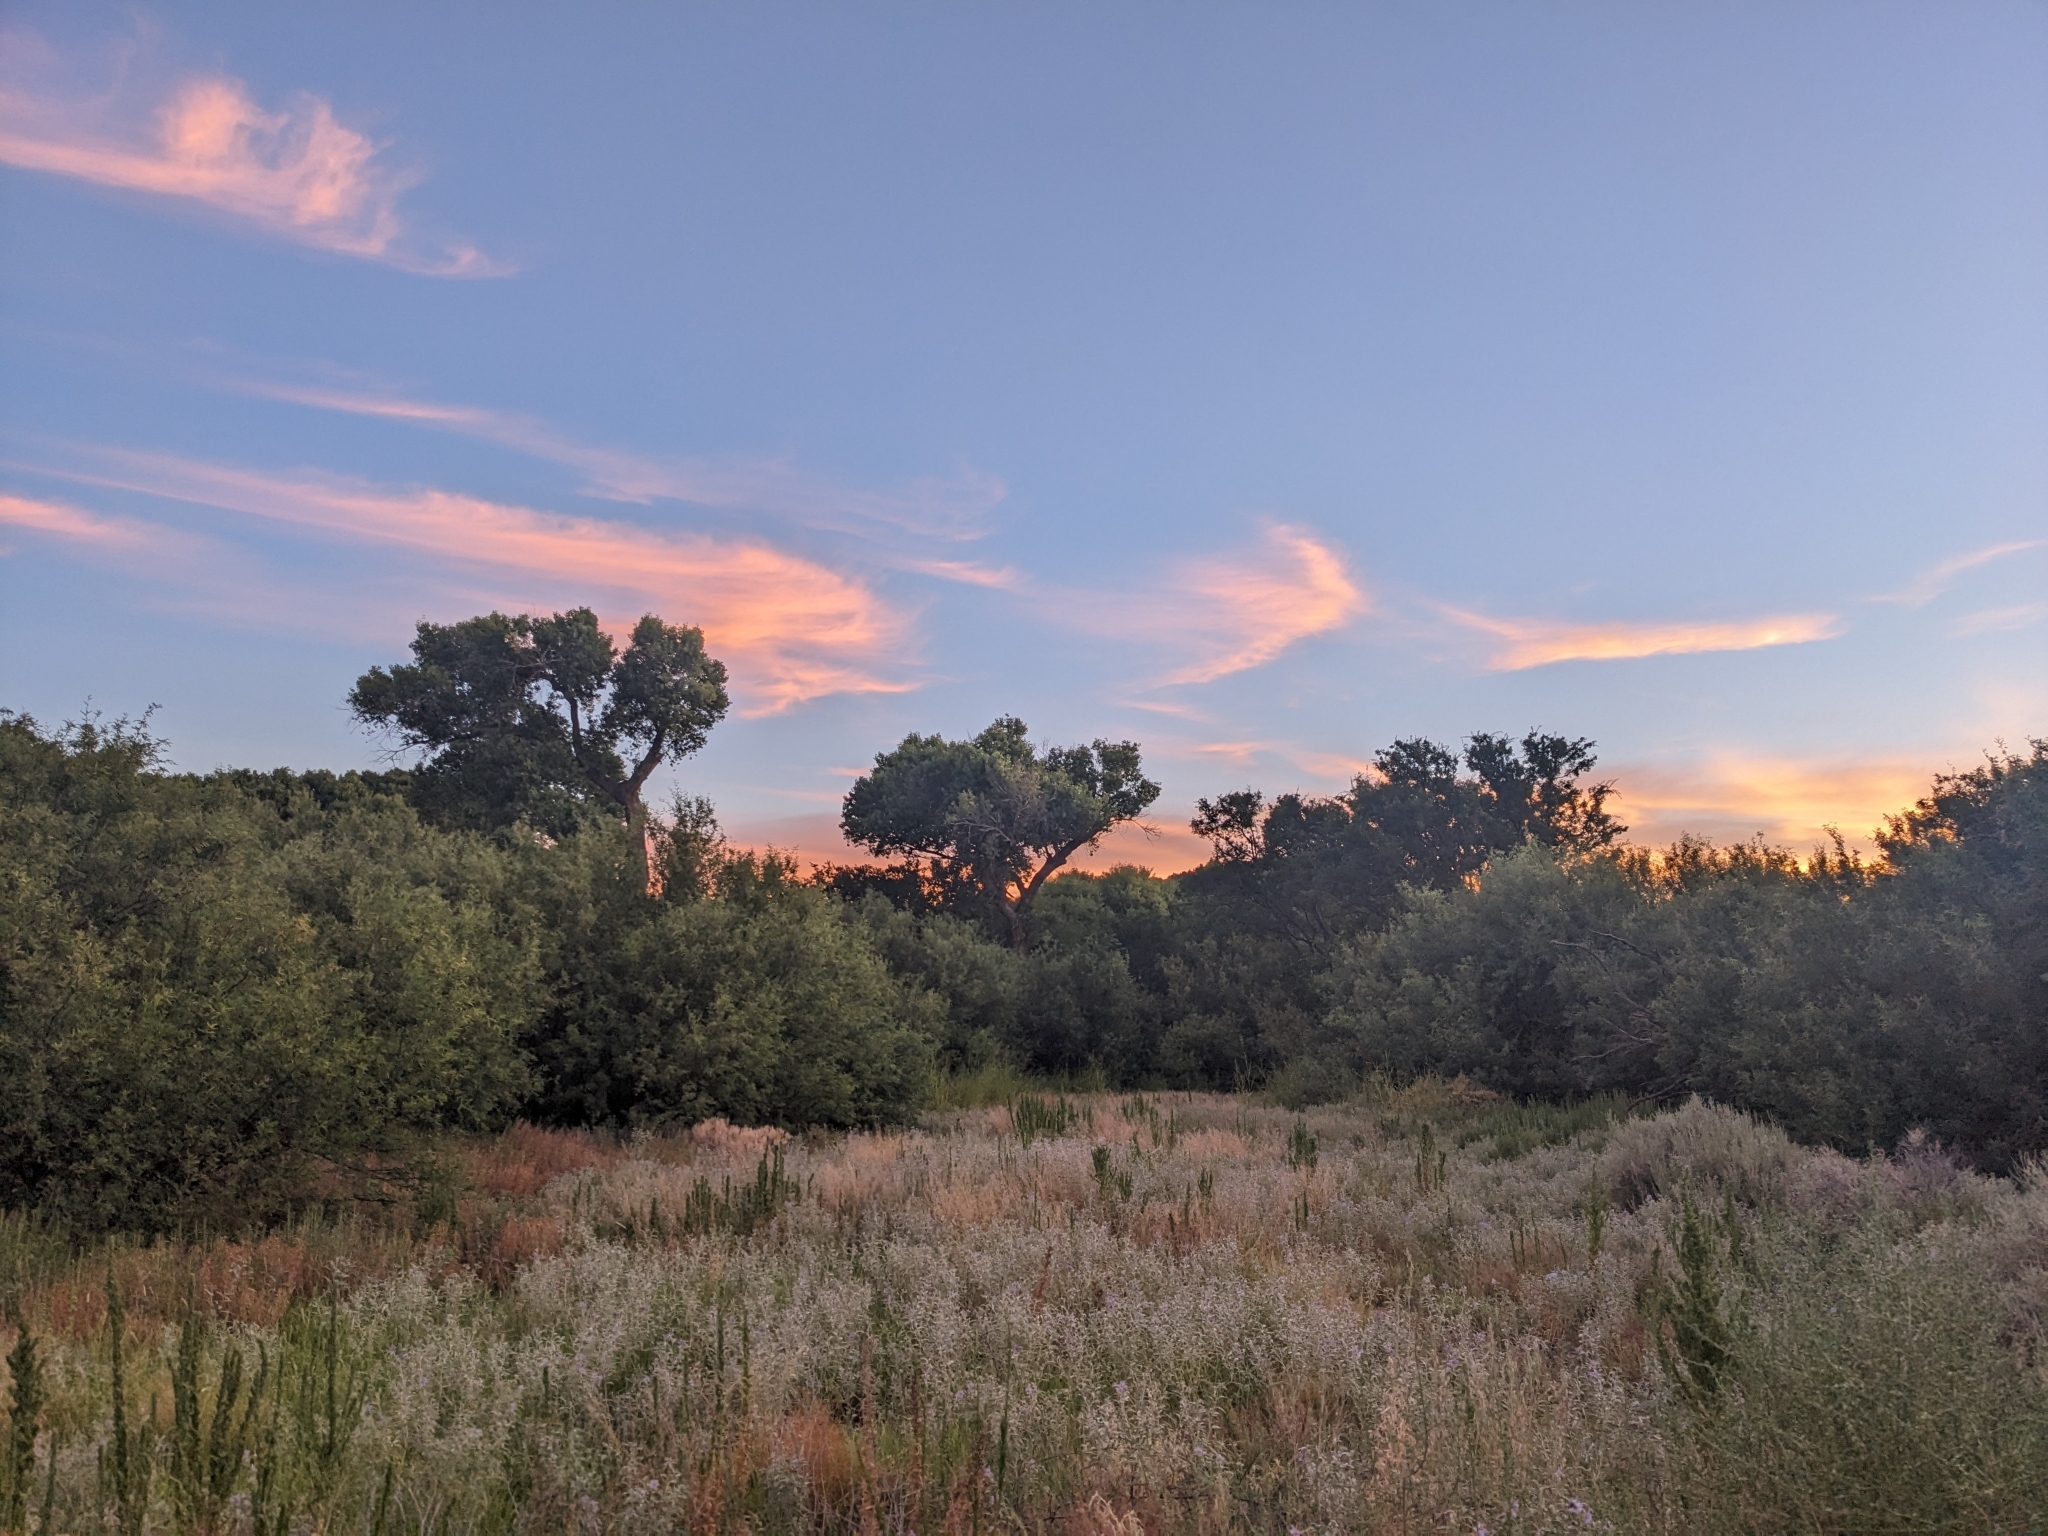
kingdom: Animalia
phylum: Chordata
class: Aves
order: Passeriformes
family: Thraupidae
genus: Volatinia
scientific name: Volatinia jacarina
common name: Blue-black grassquit
